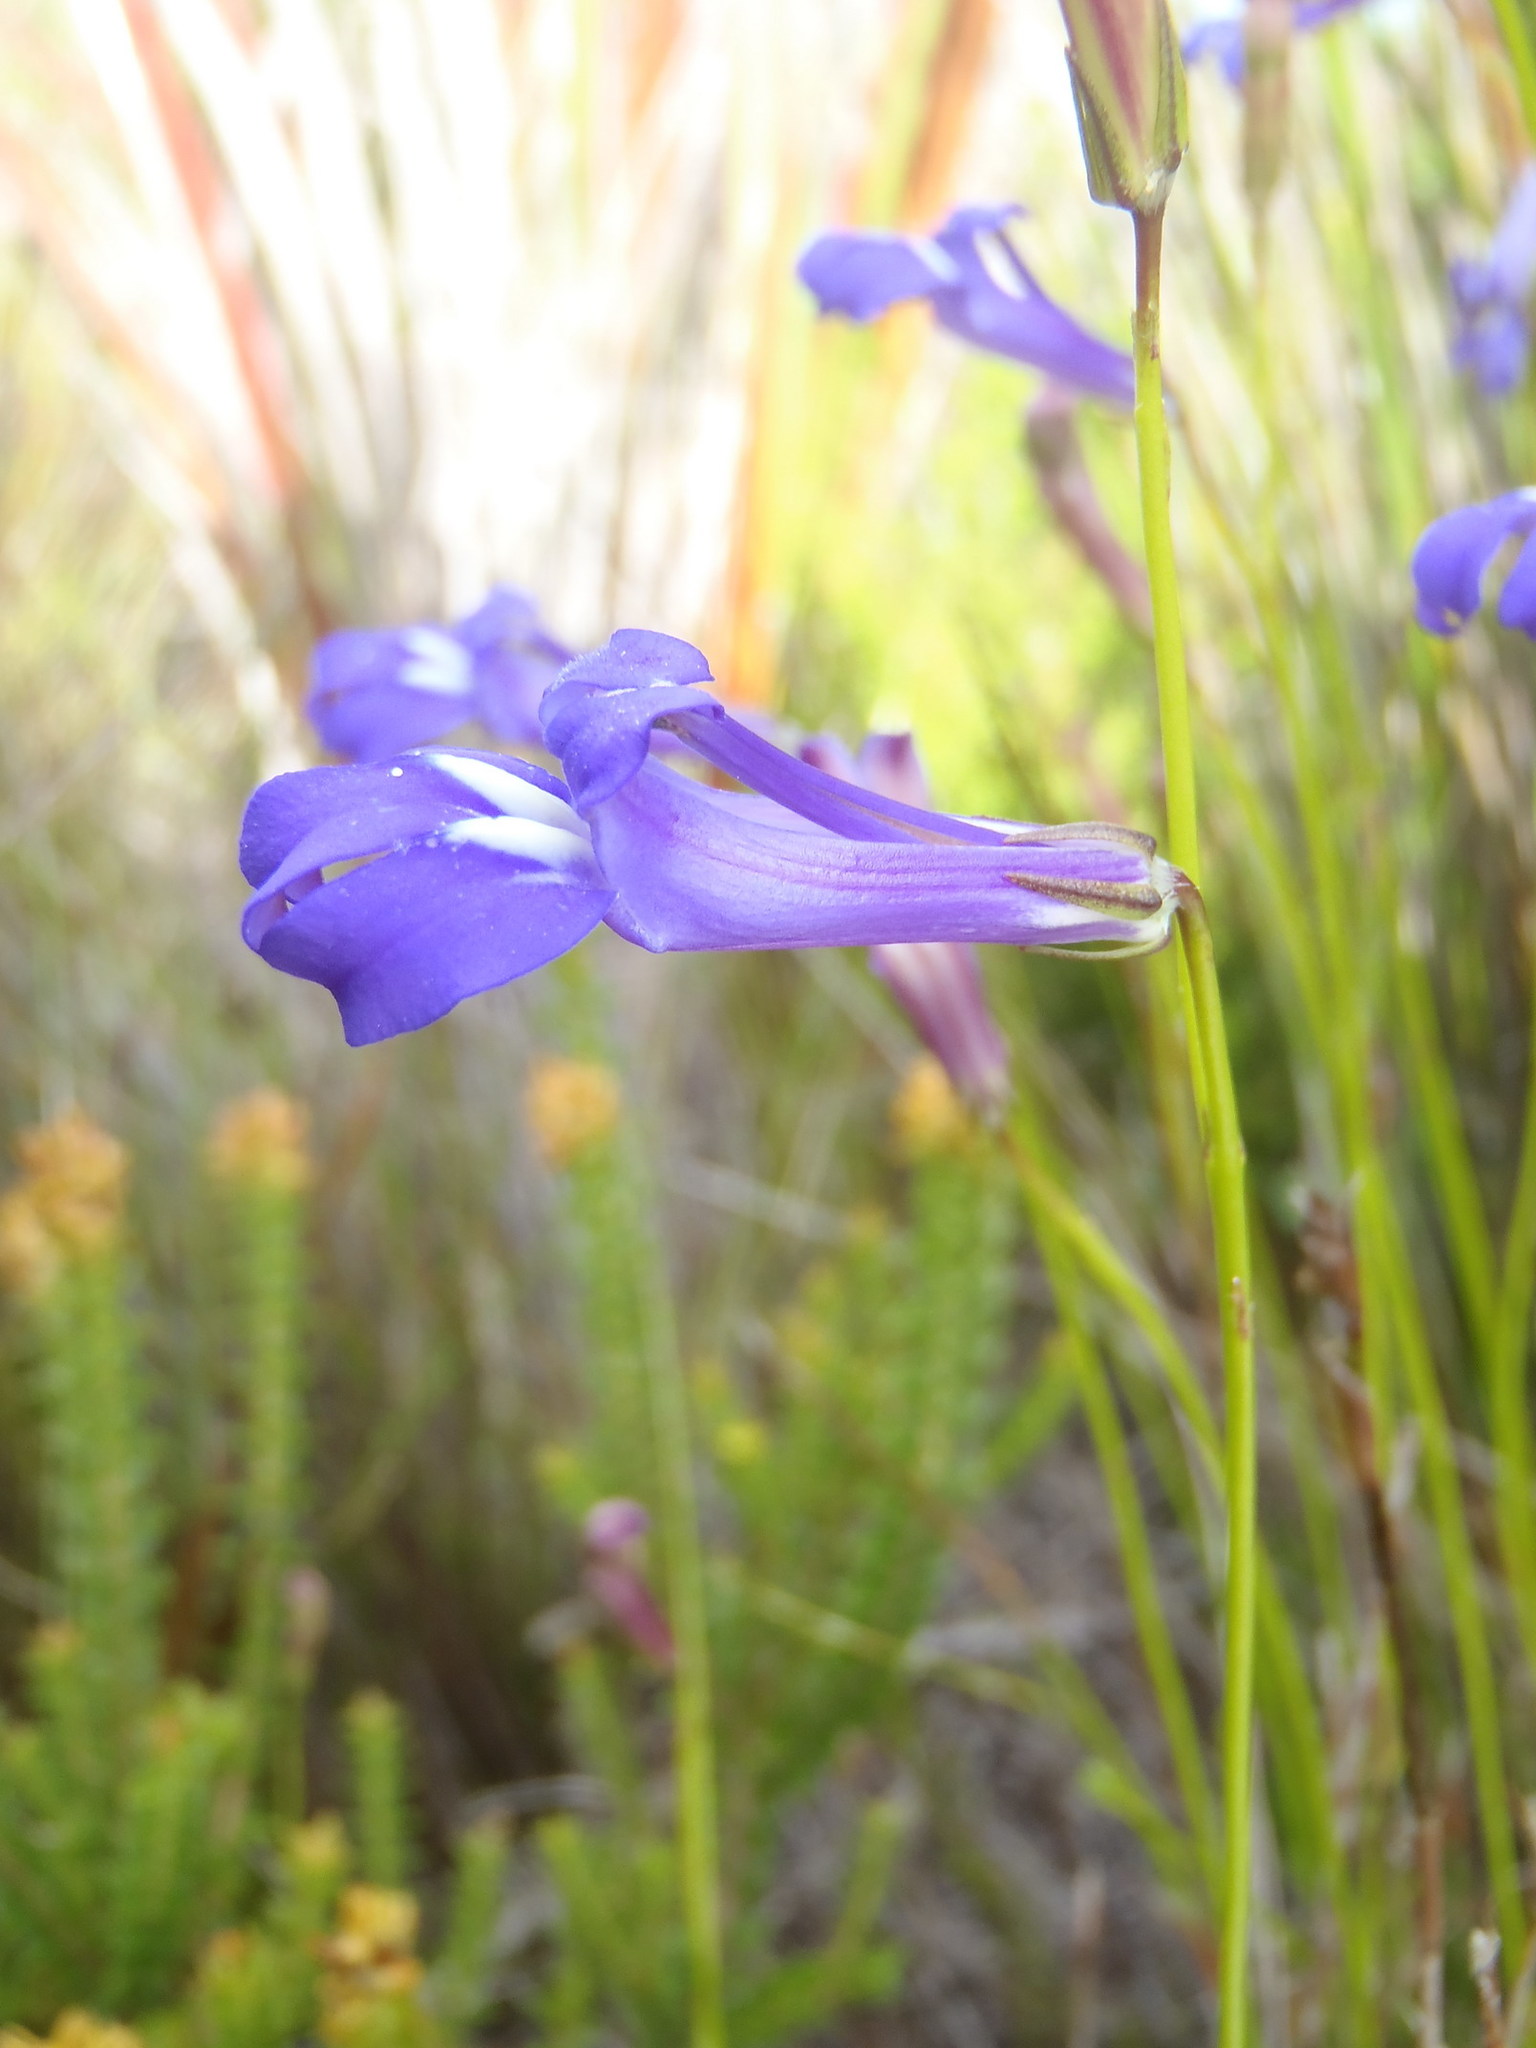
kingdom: Plantae
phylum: Tracheophyta
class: Magnoliopsida
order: Asterales
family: Campanulaceae
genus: Lobelia
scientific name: Lobelia coronopifolia
